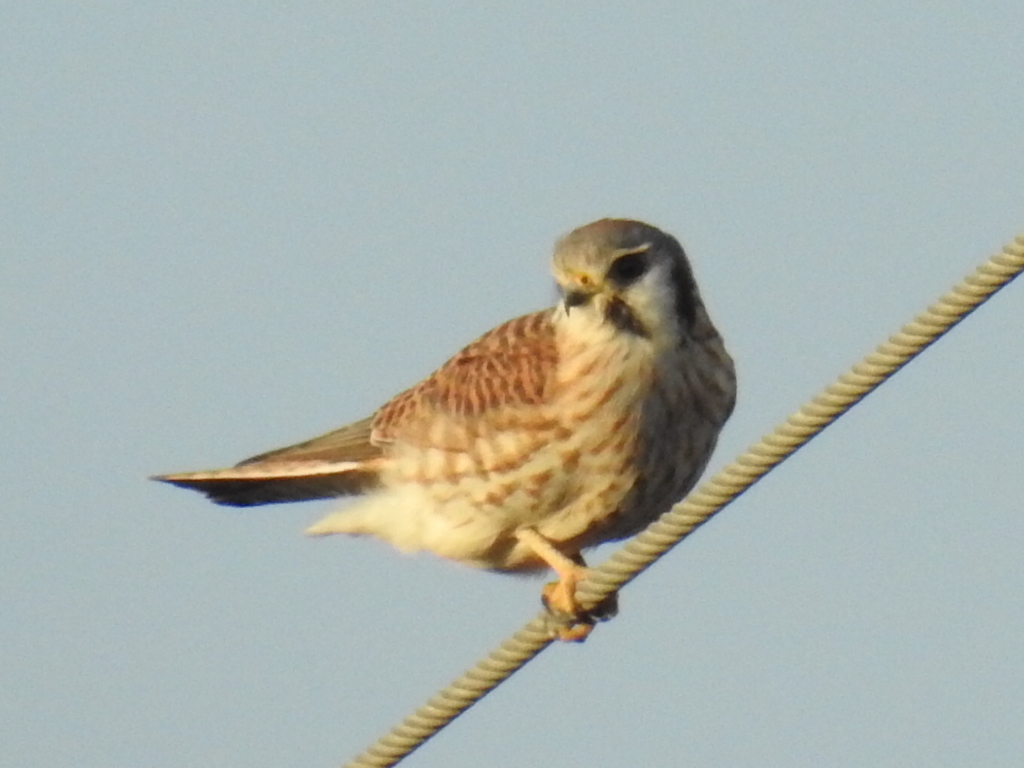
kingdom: Animalia
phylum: Chordata
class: Aves
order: Falconiformes
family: Falconidae
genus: Falco
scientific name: Falco sparverius
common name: American kestrel
